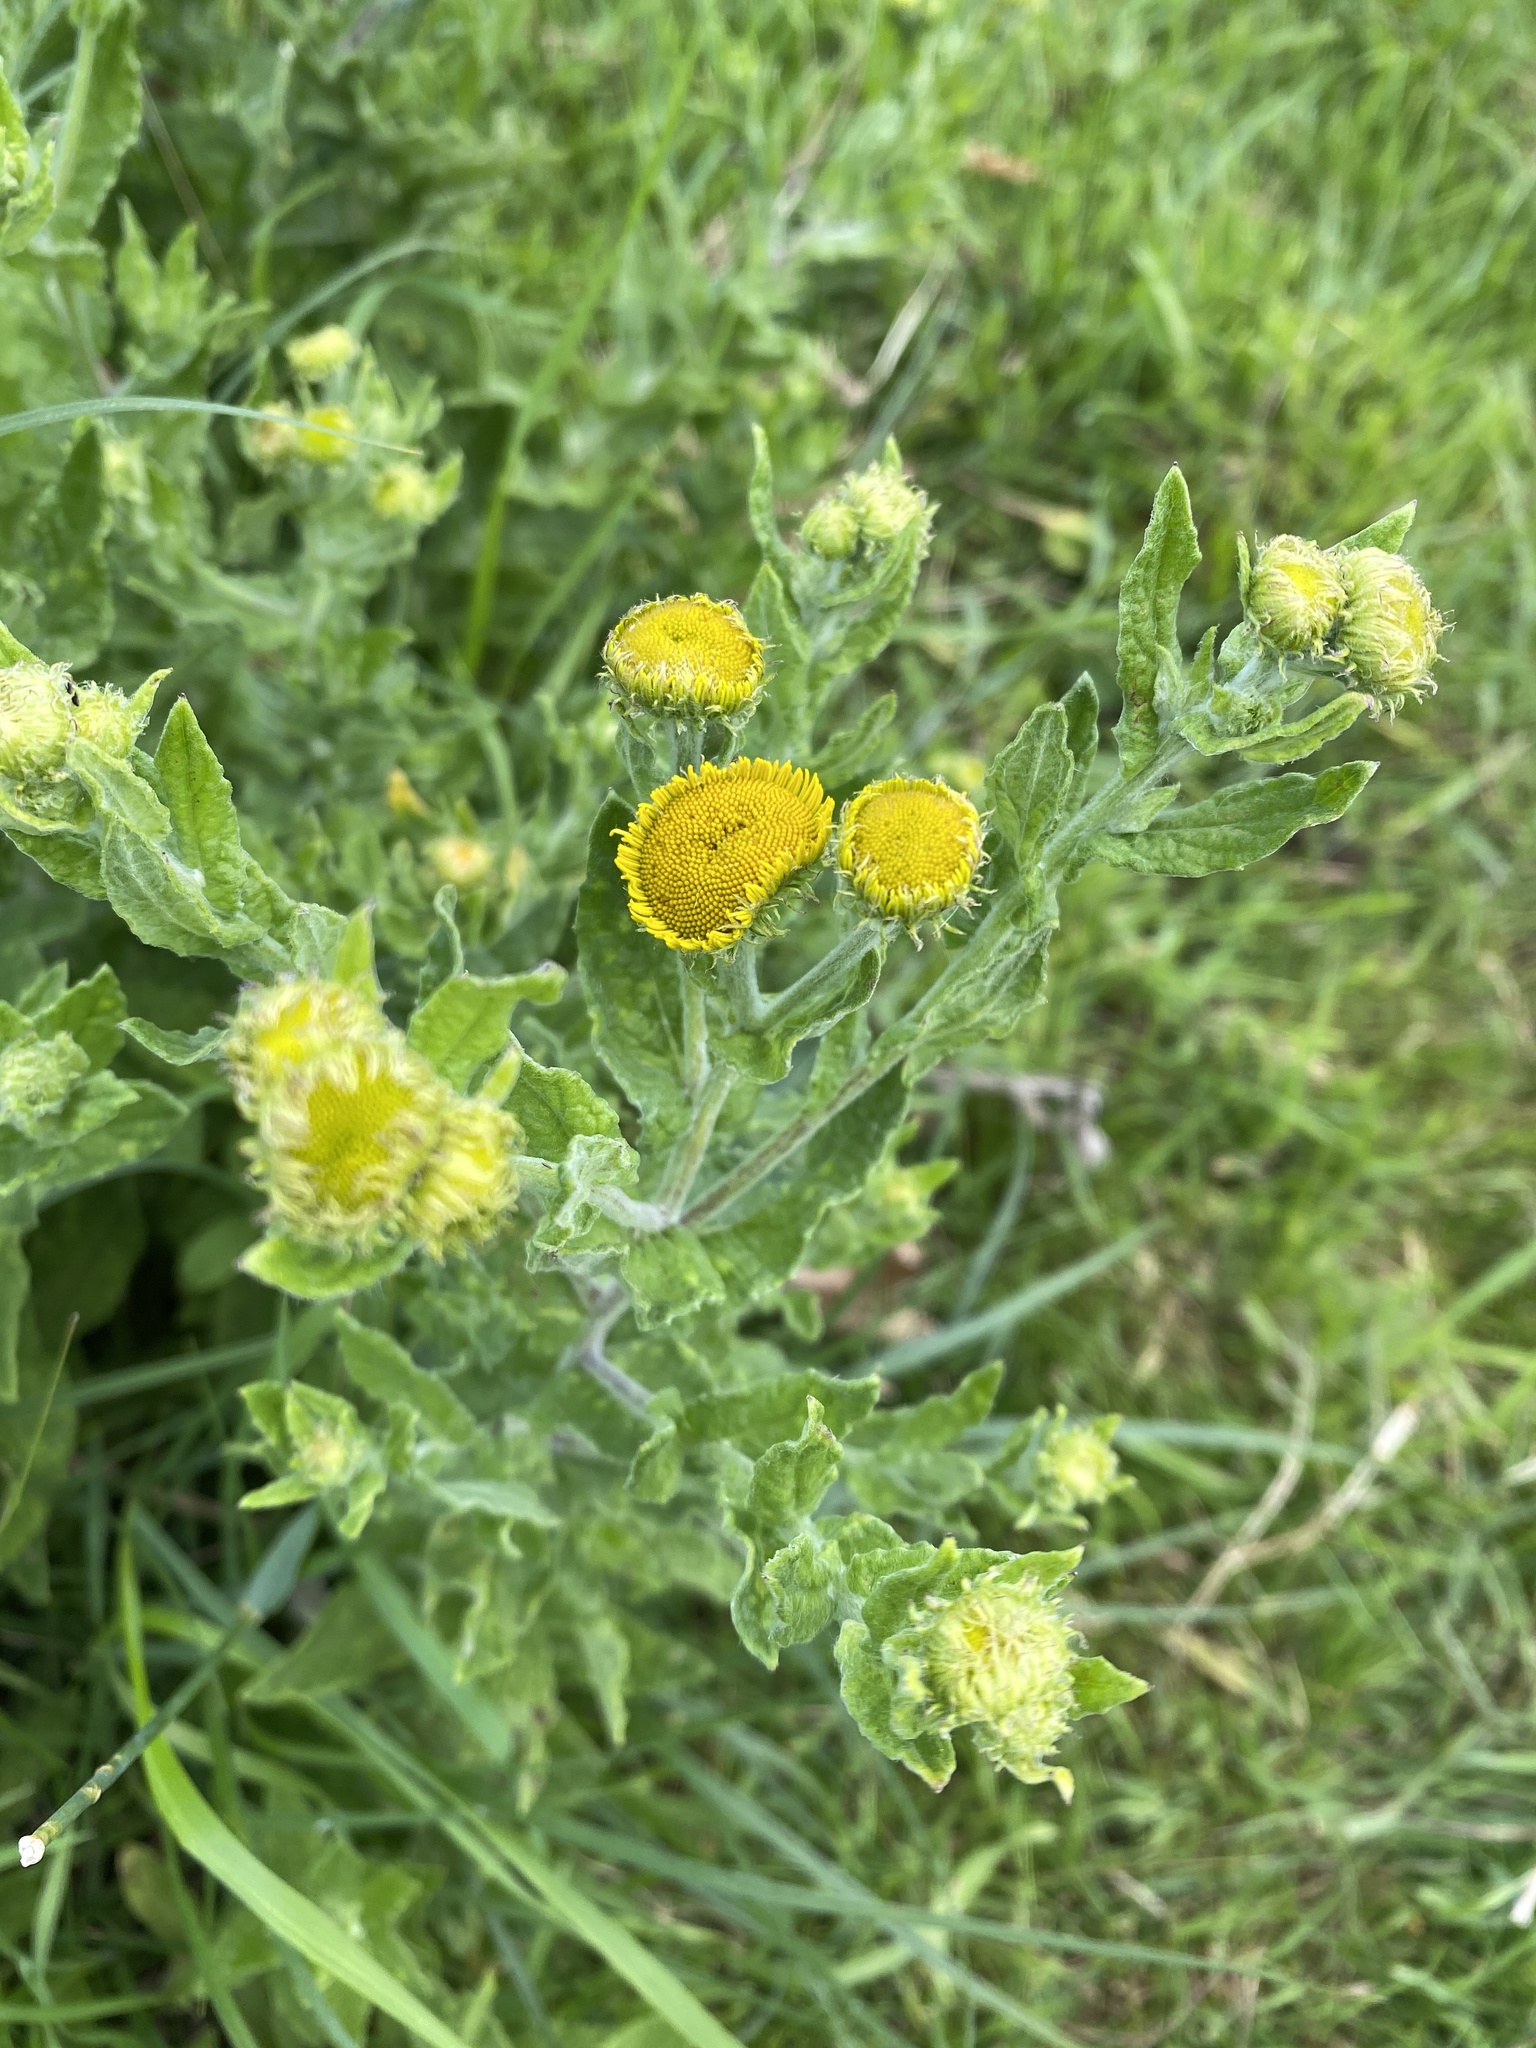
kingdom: Plantae
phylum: Tracheophyta
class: Magnoliopsida
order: Asterales
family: Asteraceae
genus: Pulicaria
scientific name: Pulicaria dysenterica
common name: Common fleabane
